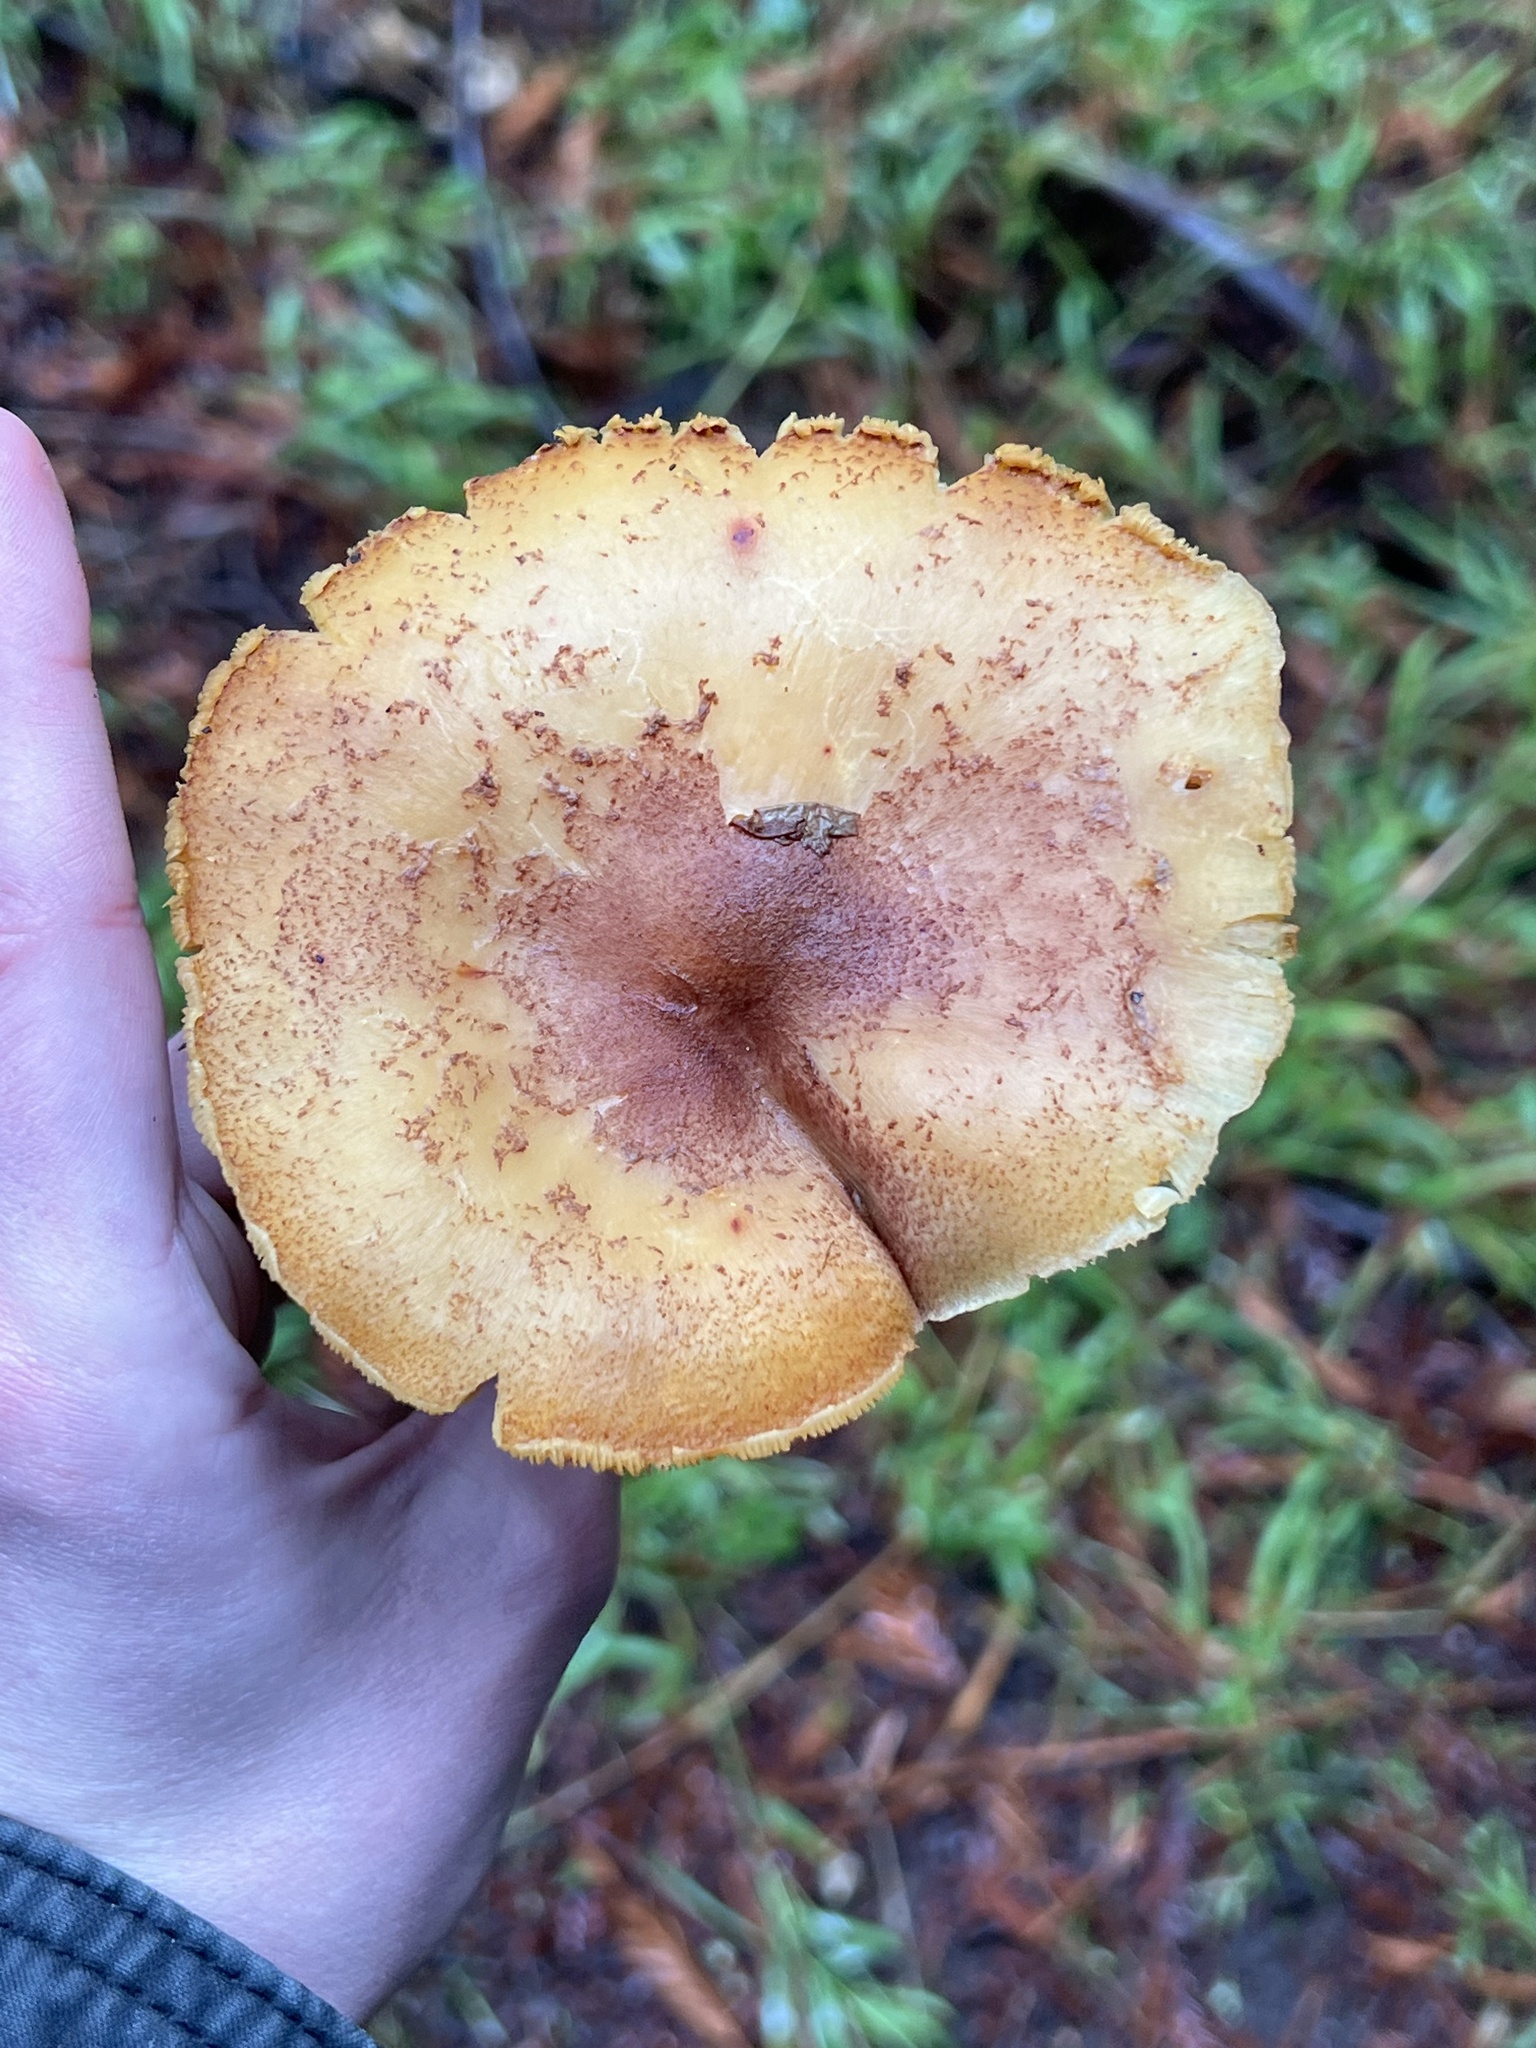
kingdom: Fungi
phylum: Basidiomycota
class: Agaricomycetes
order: Agaricales
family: Tricholomataceae
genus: Tricholomopsis
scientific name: Tricholomopsis rutilans
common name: Plums and custard
